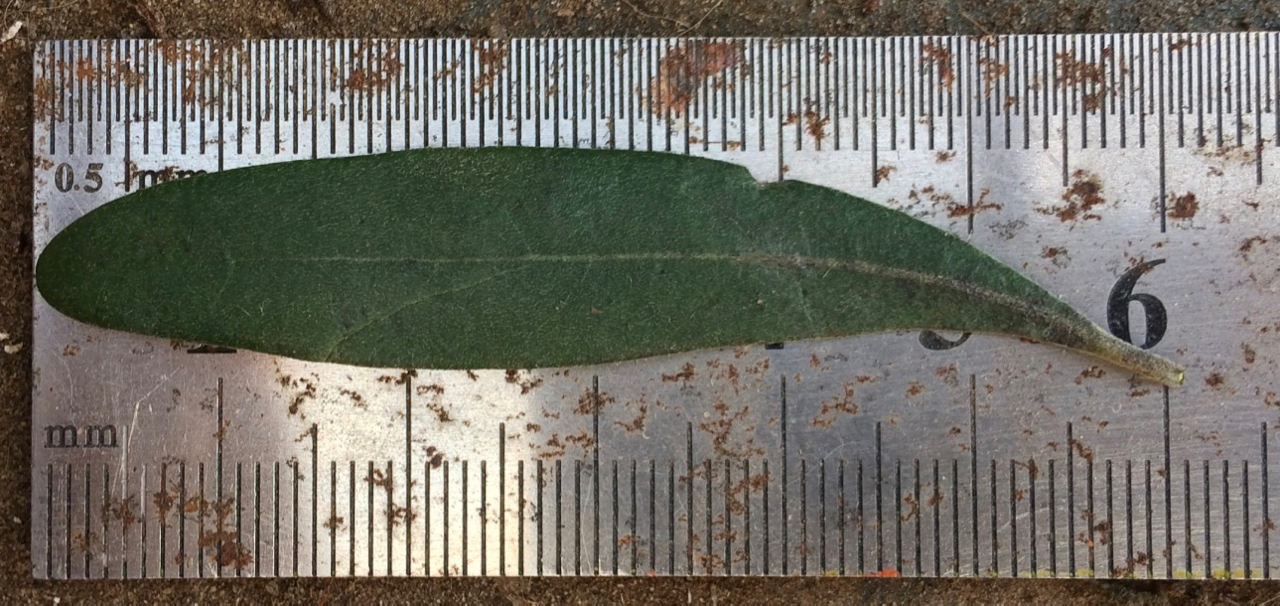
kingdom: Plantae
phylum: Tracheophyta
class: Magnoliopsida
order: Ericales
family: Ebenaceae
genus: Diospyros
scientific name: Diospyros dichrophylla
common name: Common star-apple
